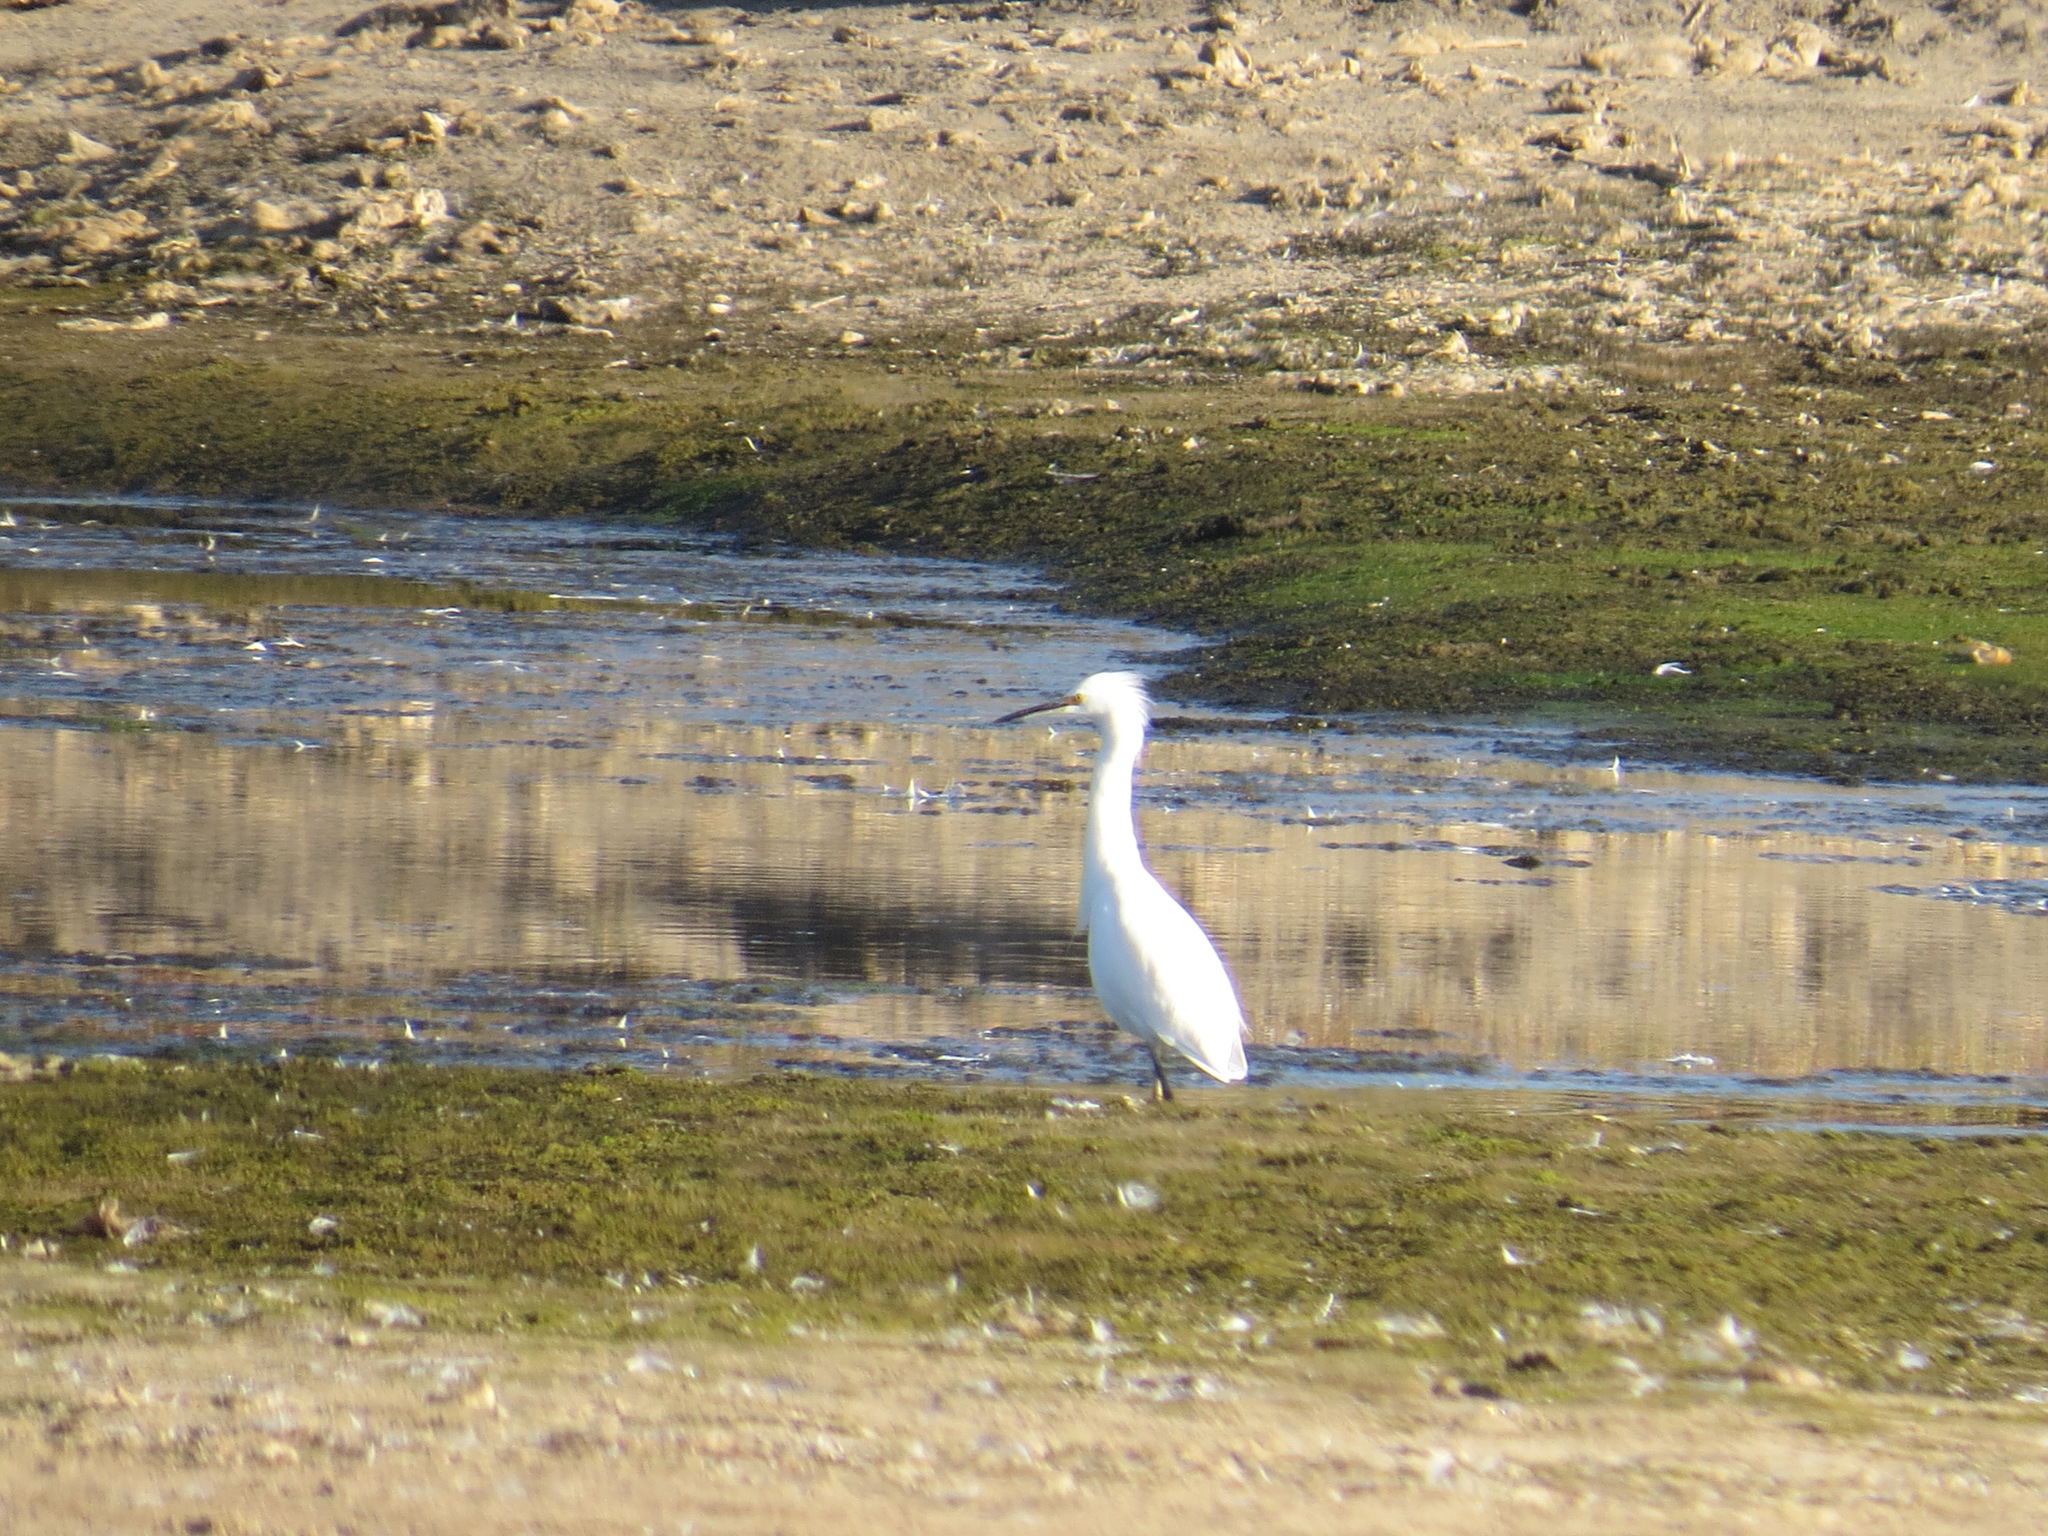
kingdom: Animalia
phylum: Chordata
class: Aves
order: Pelecaniformes
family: Ardeidae
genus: Egretta
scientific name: Egretta thula
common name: Snowy egret
